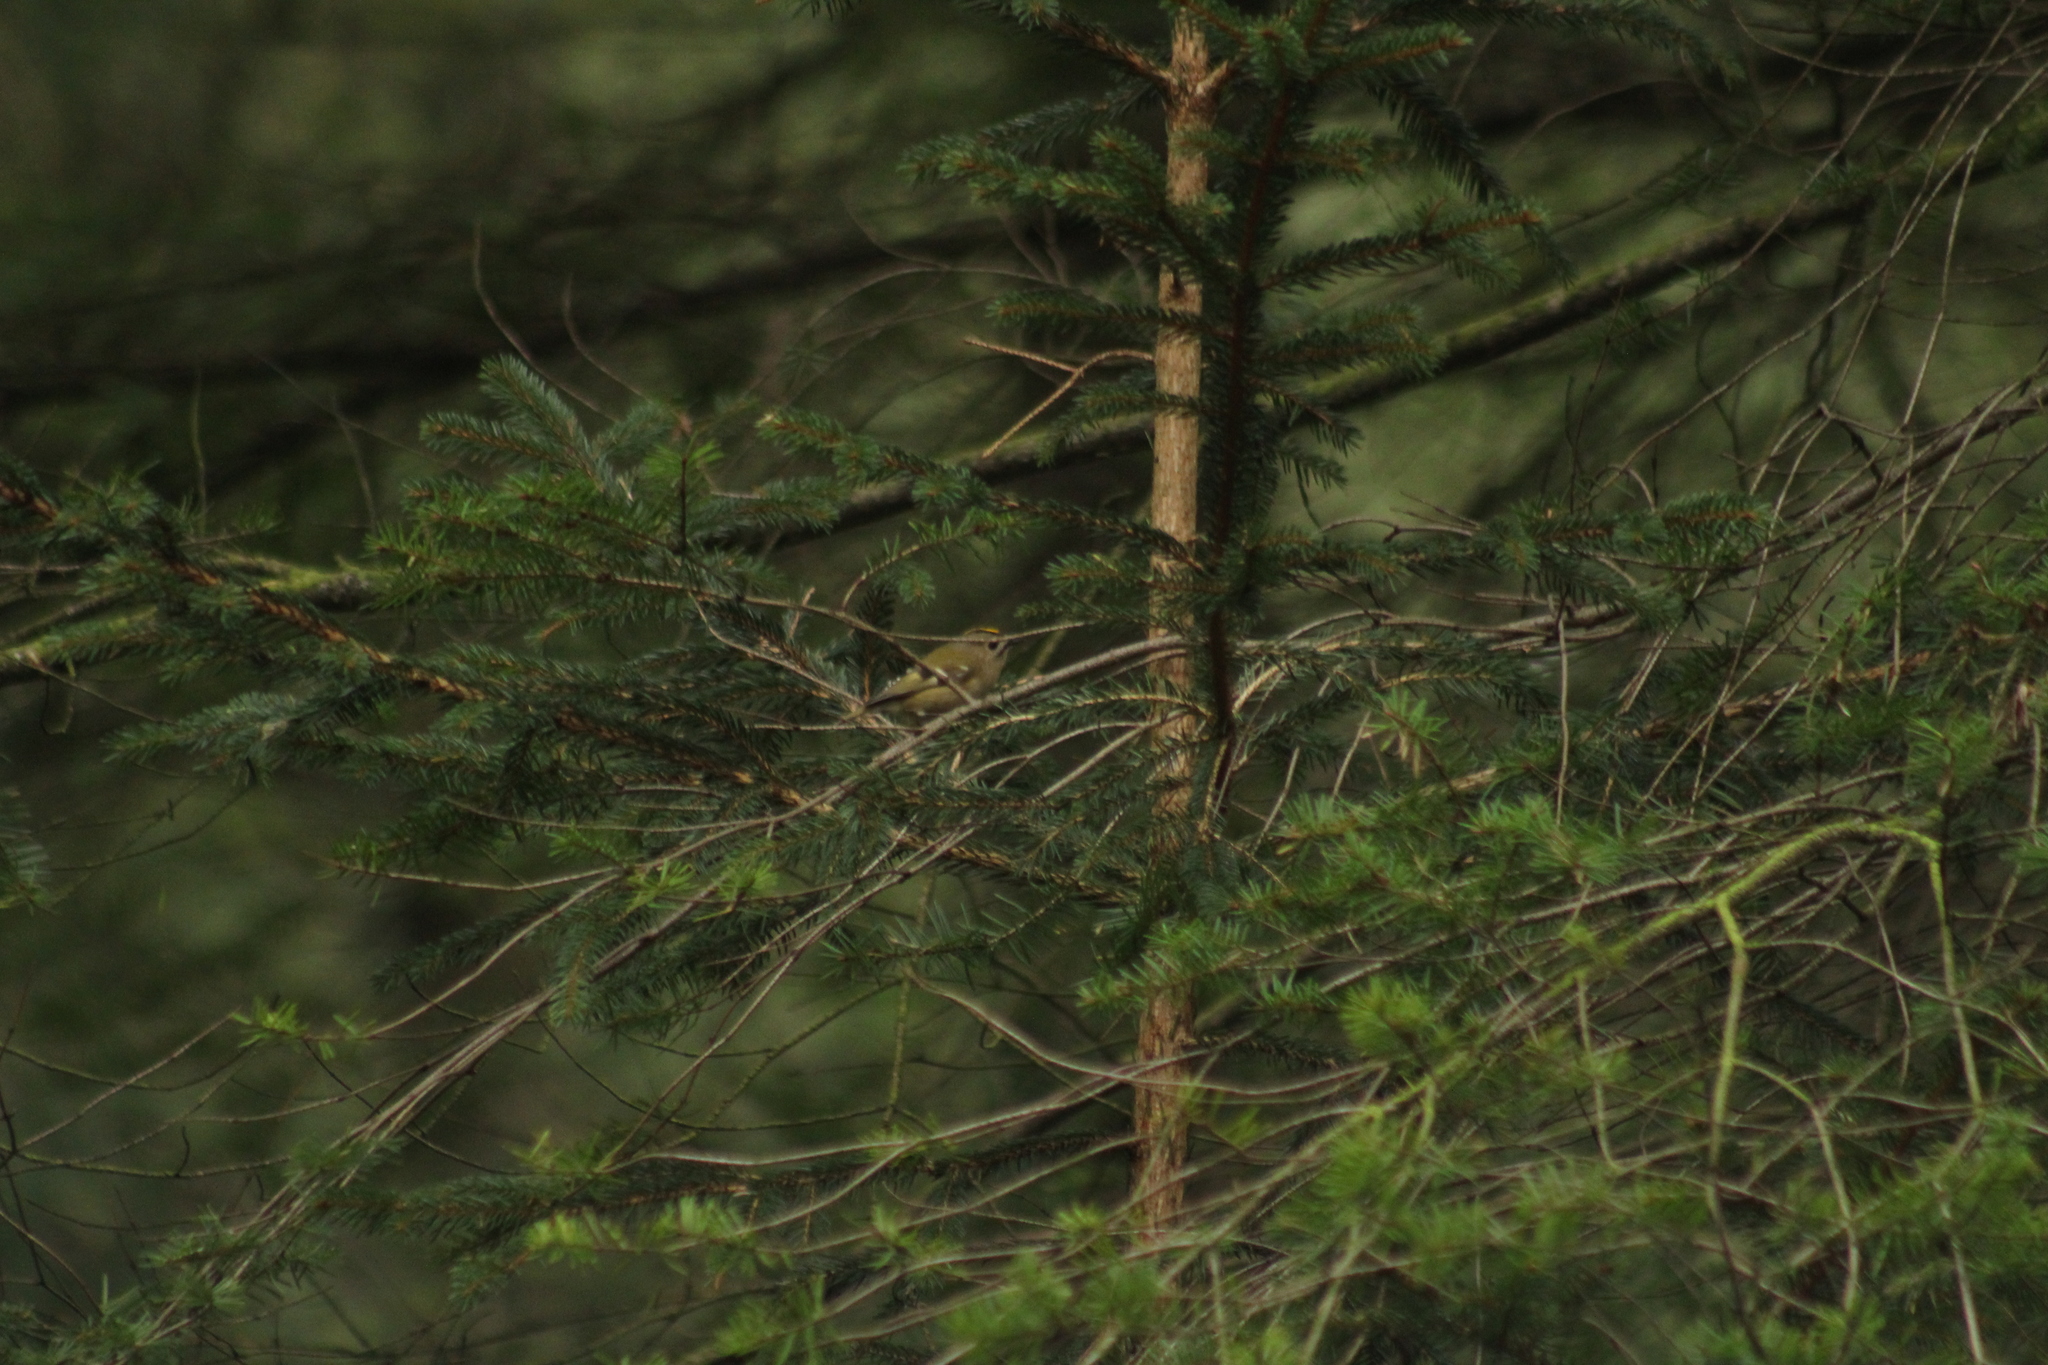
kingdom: Animalia
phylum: Chordata
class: Aves
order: Passeriformes
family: Regulidae
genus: Regulus
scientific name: Regulus regulus
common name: Goldcrest
